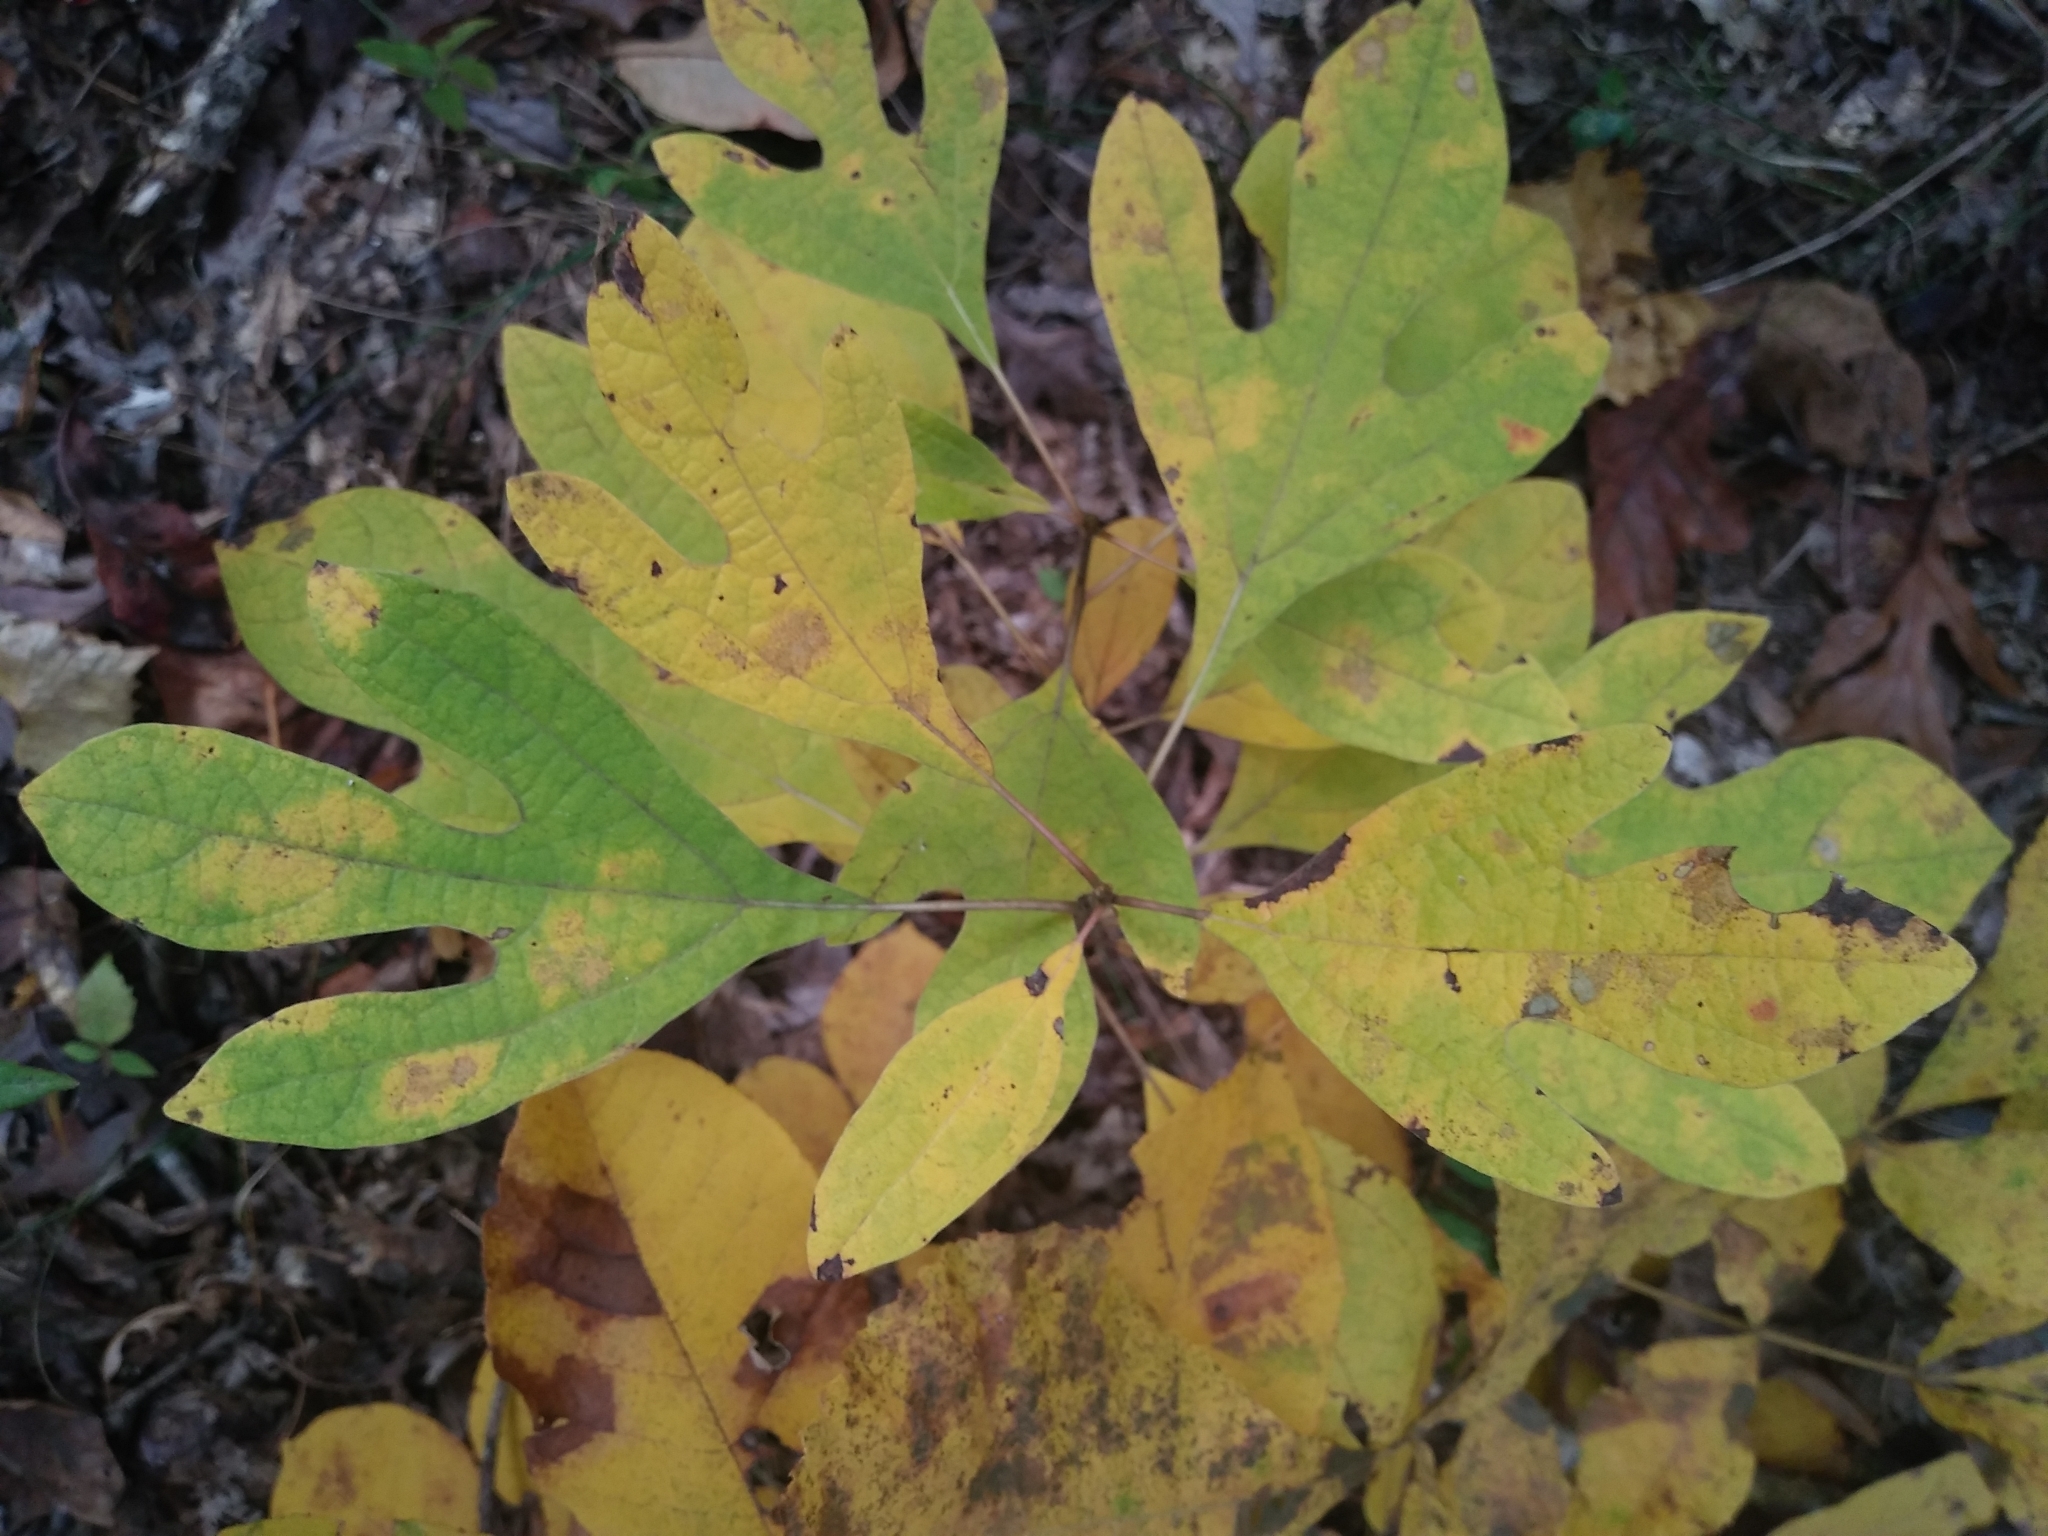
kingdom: Plantae
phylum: Tracheophyta
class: Magnoliopsida
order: Laurales
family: Lauraceae
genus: Sassafras
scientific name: Sassafras albidum
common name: Sassafras
